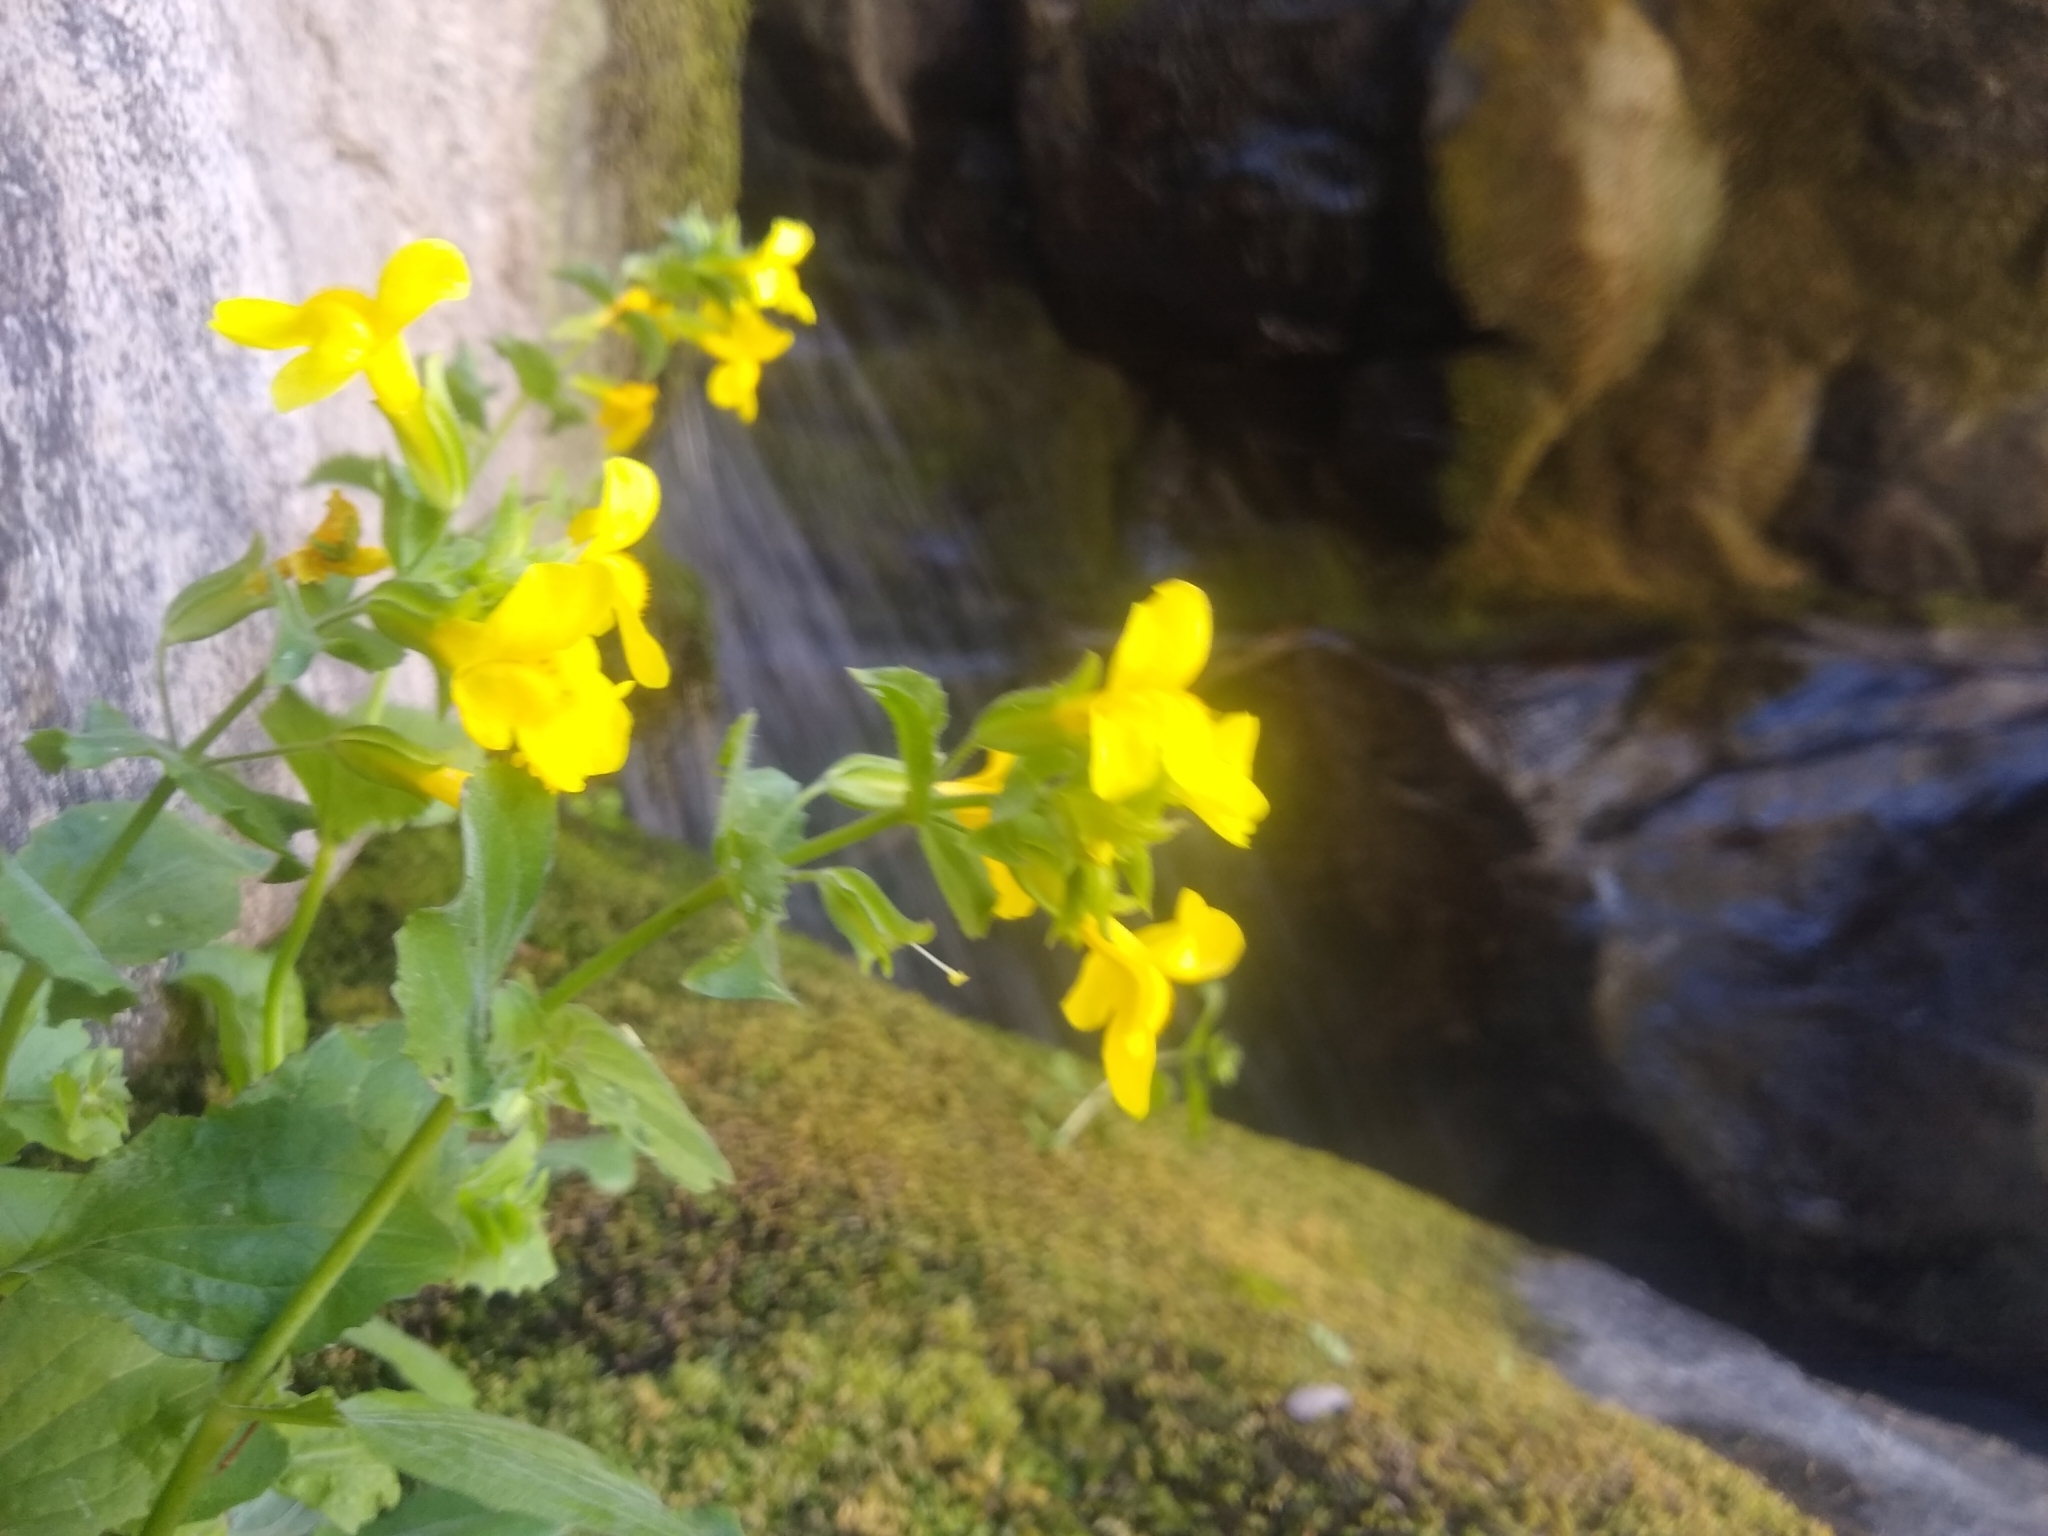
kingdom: Plantae
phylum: Tracheophyta
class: Magnoliopsida
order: Lamiales
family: Phrymaceae
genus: Erythranthe
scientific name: Erythranthe guttata
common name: Monkeyflower
